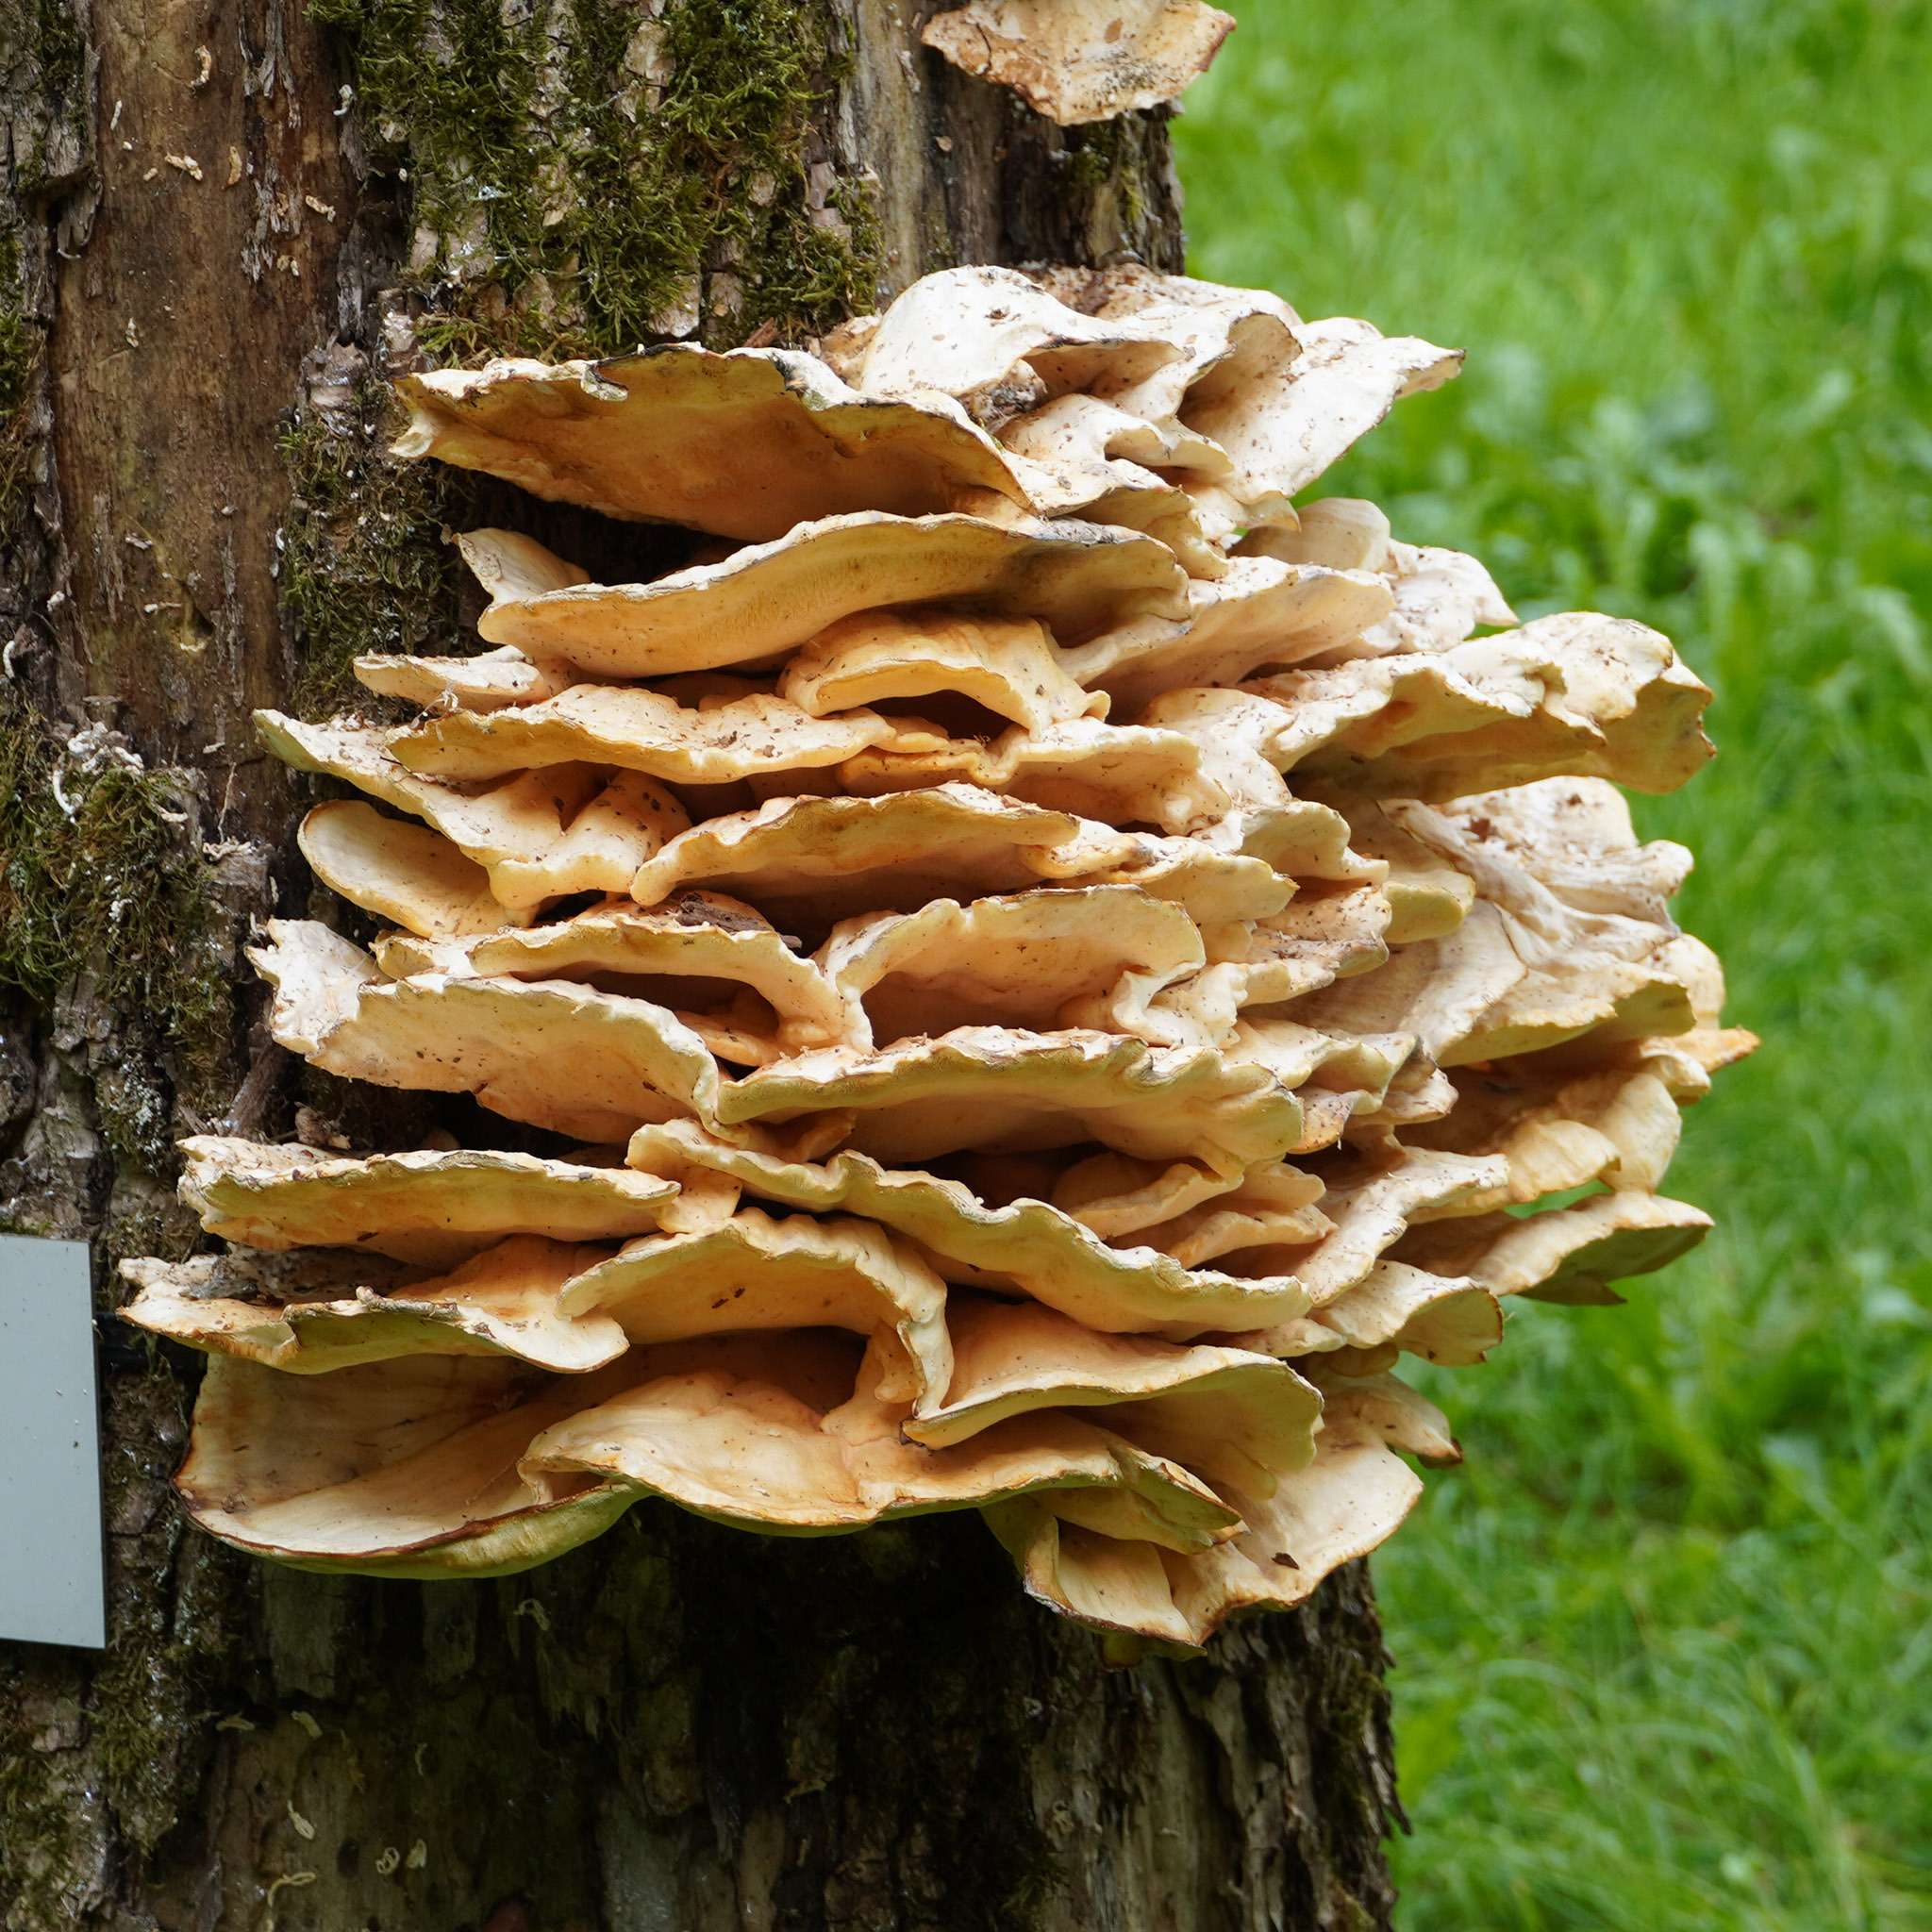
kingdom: Fungi
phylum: Basidiomycota
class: Agaricomycetes
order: Polyporales
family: Laetiporaceae
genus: Laetiporus
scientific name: Laetiporus sulphureus
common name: Chicken of the woods
